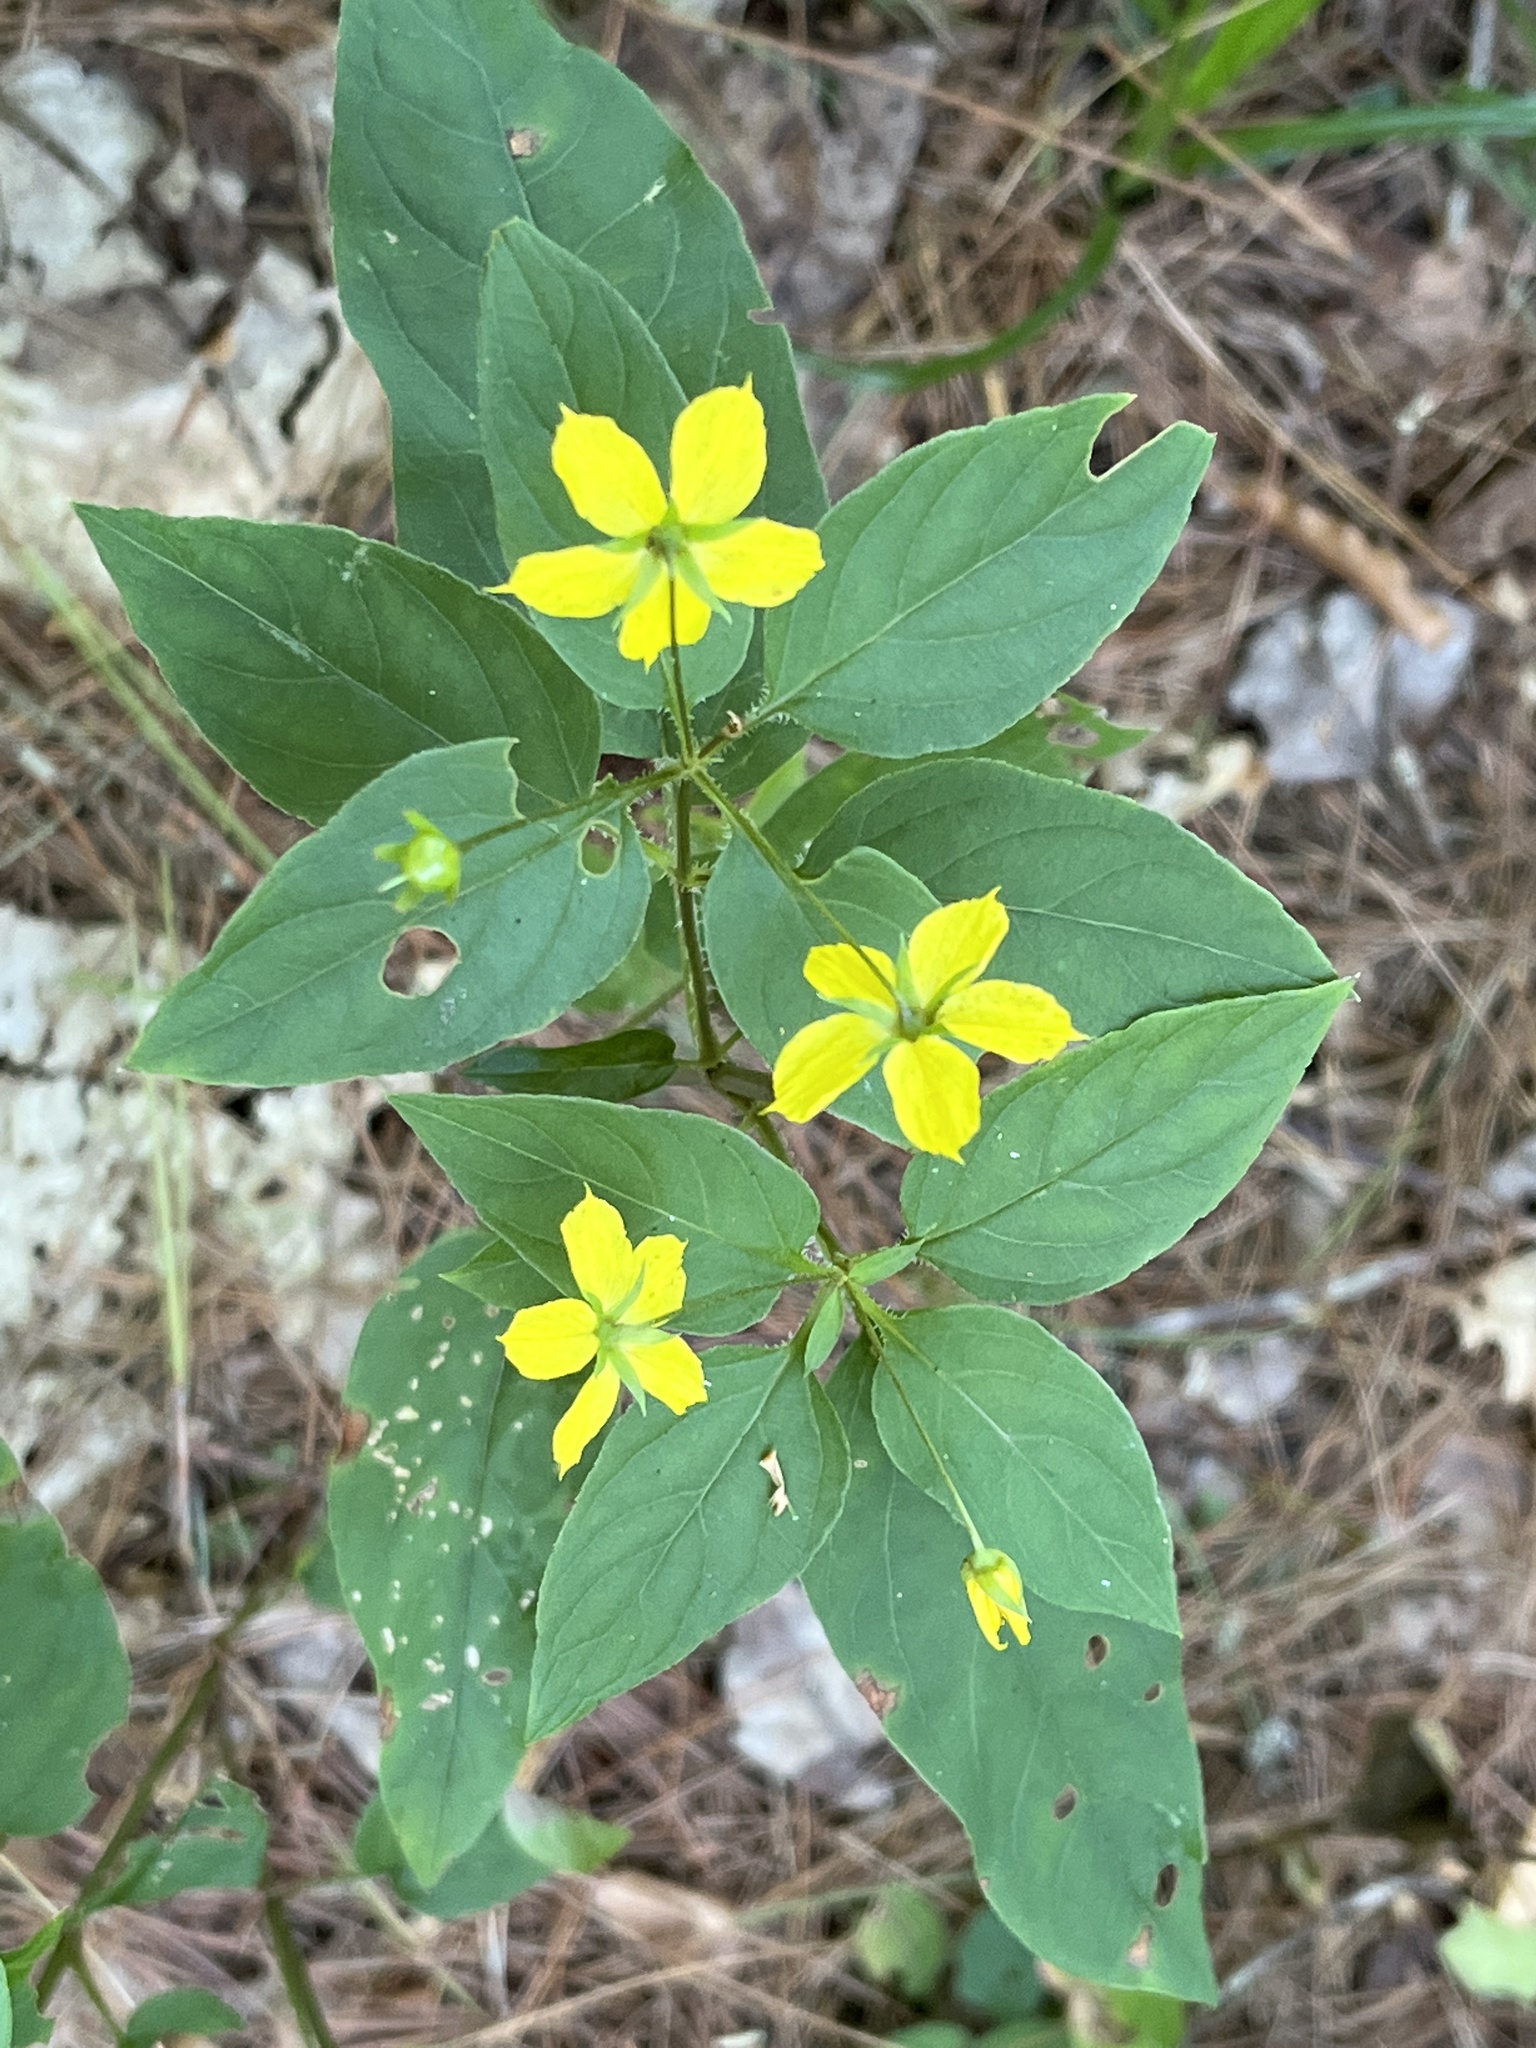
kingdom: Plantae
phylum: Tracheophyta
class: Magnoliopsida
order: Ericales
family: Primulaceae
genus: Lysimachia
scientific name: Lysimachia ciliata
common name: Fringed loosestrife
